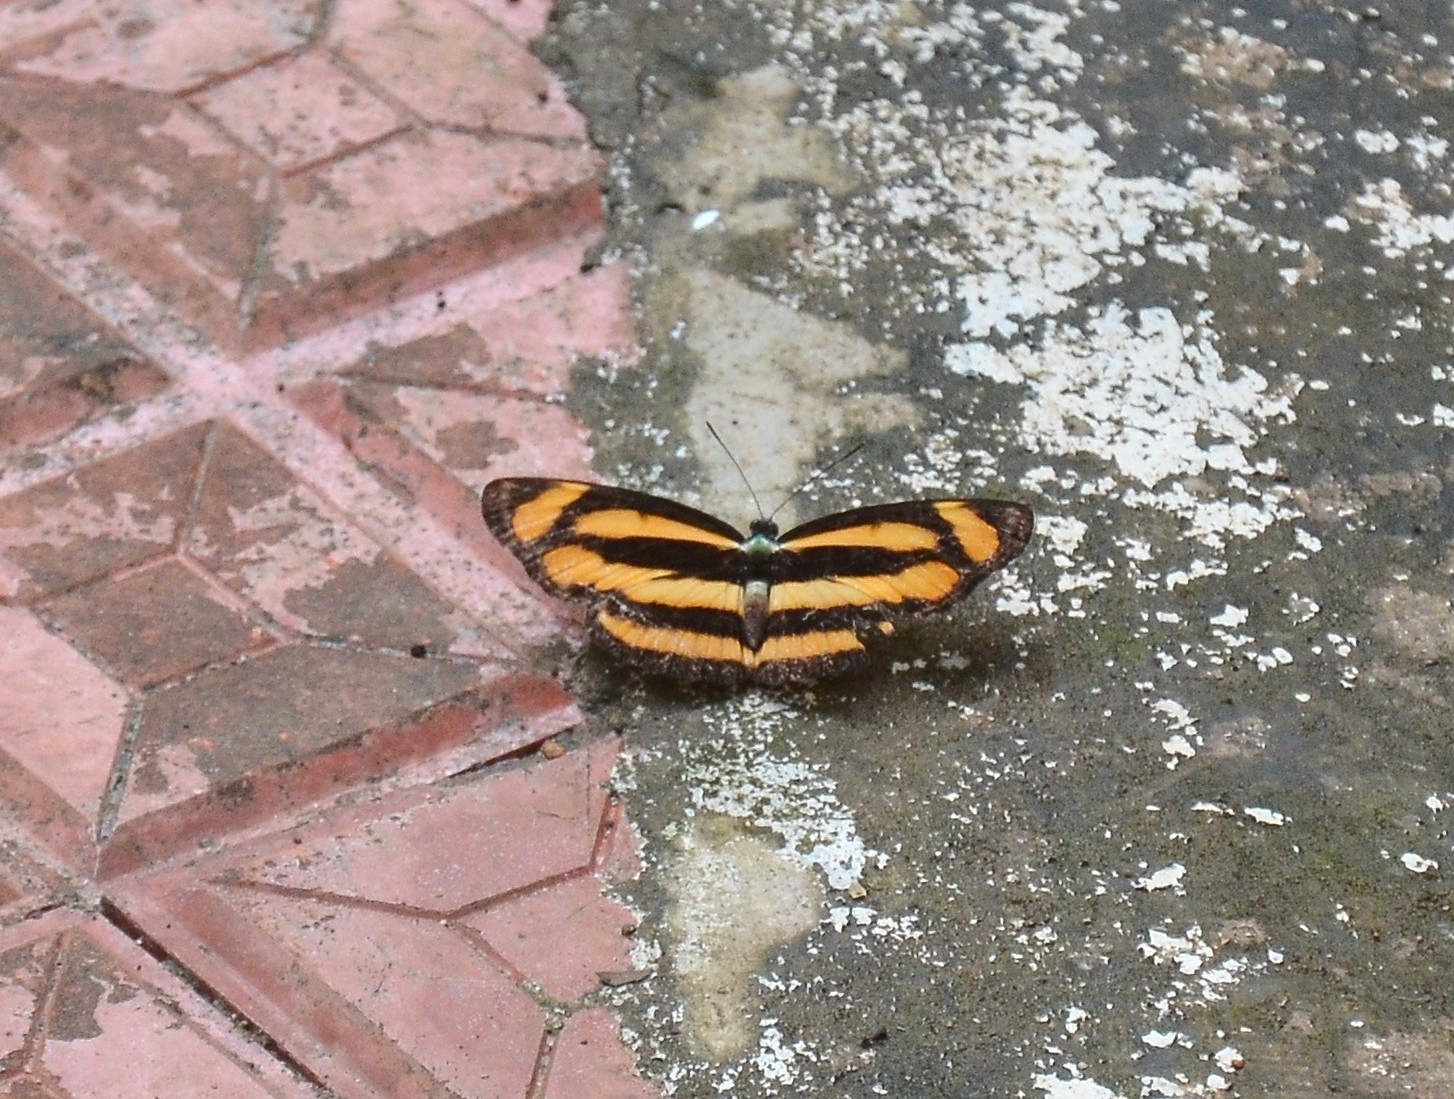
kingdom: Animalia
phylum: Arthropoda
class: Insecta
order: Lepidoptera
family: Nymphalidae
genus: Lasippa
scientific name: Lasippa viraja
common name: Yellowjack sailer
